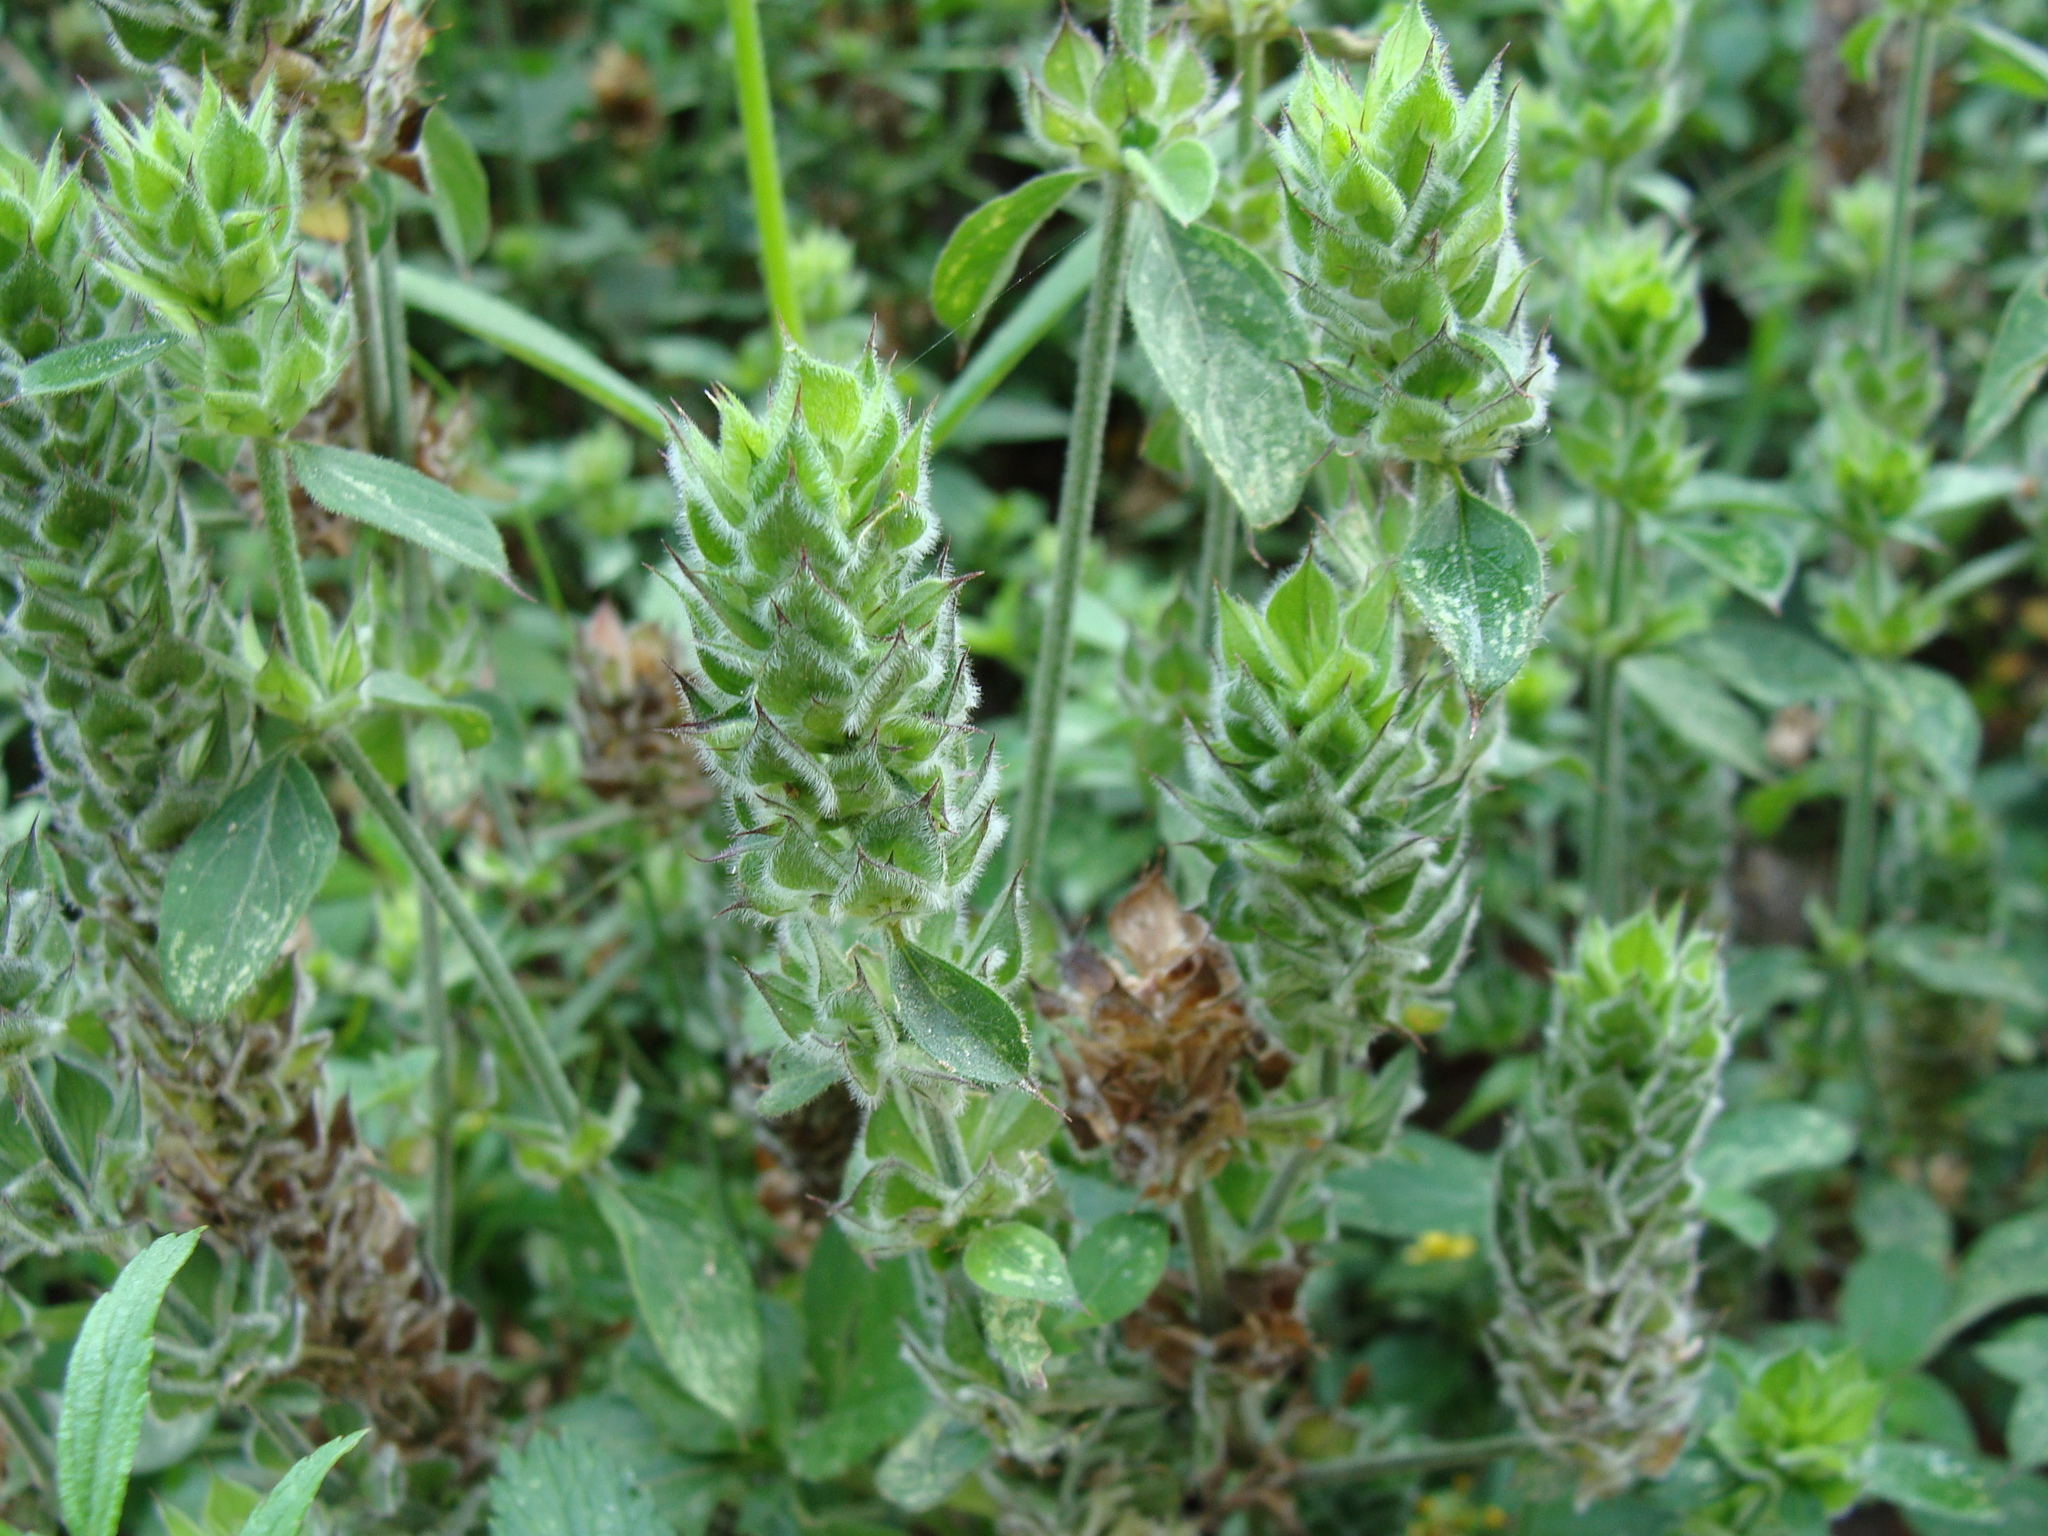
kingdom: Plantae
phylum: Tracheophyta
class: Magnoliopsida
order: Lamiales
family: Acanthaceae
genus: Dicliptera
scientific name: Dicliptera unguiculata
